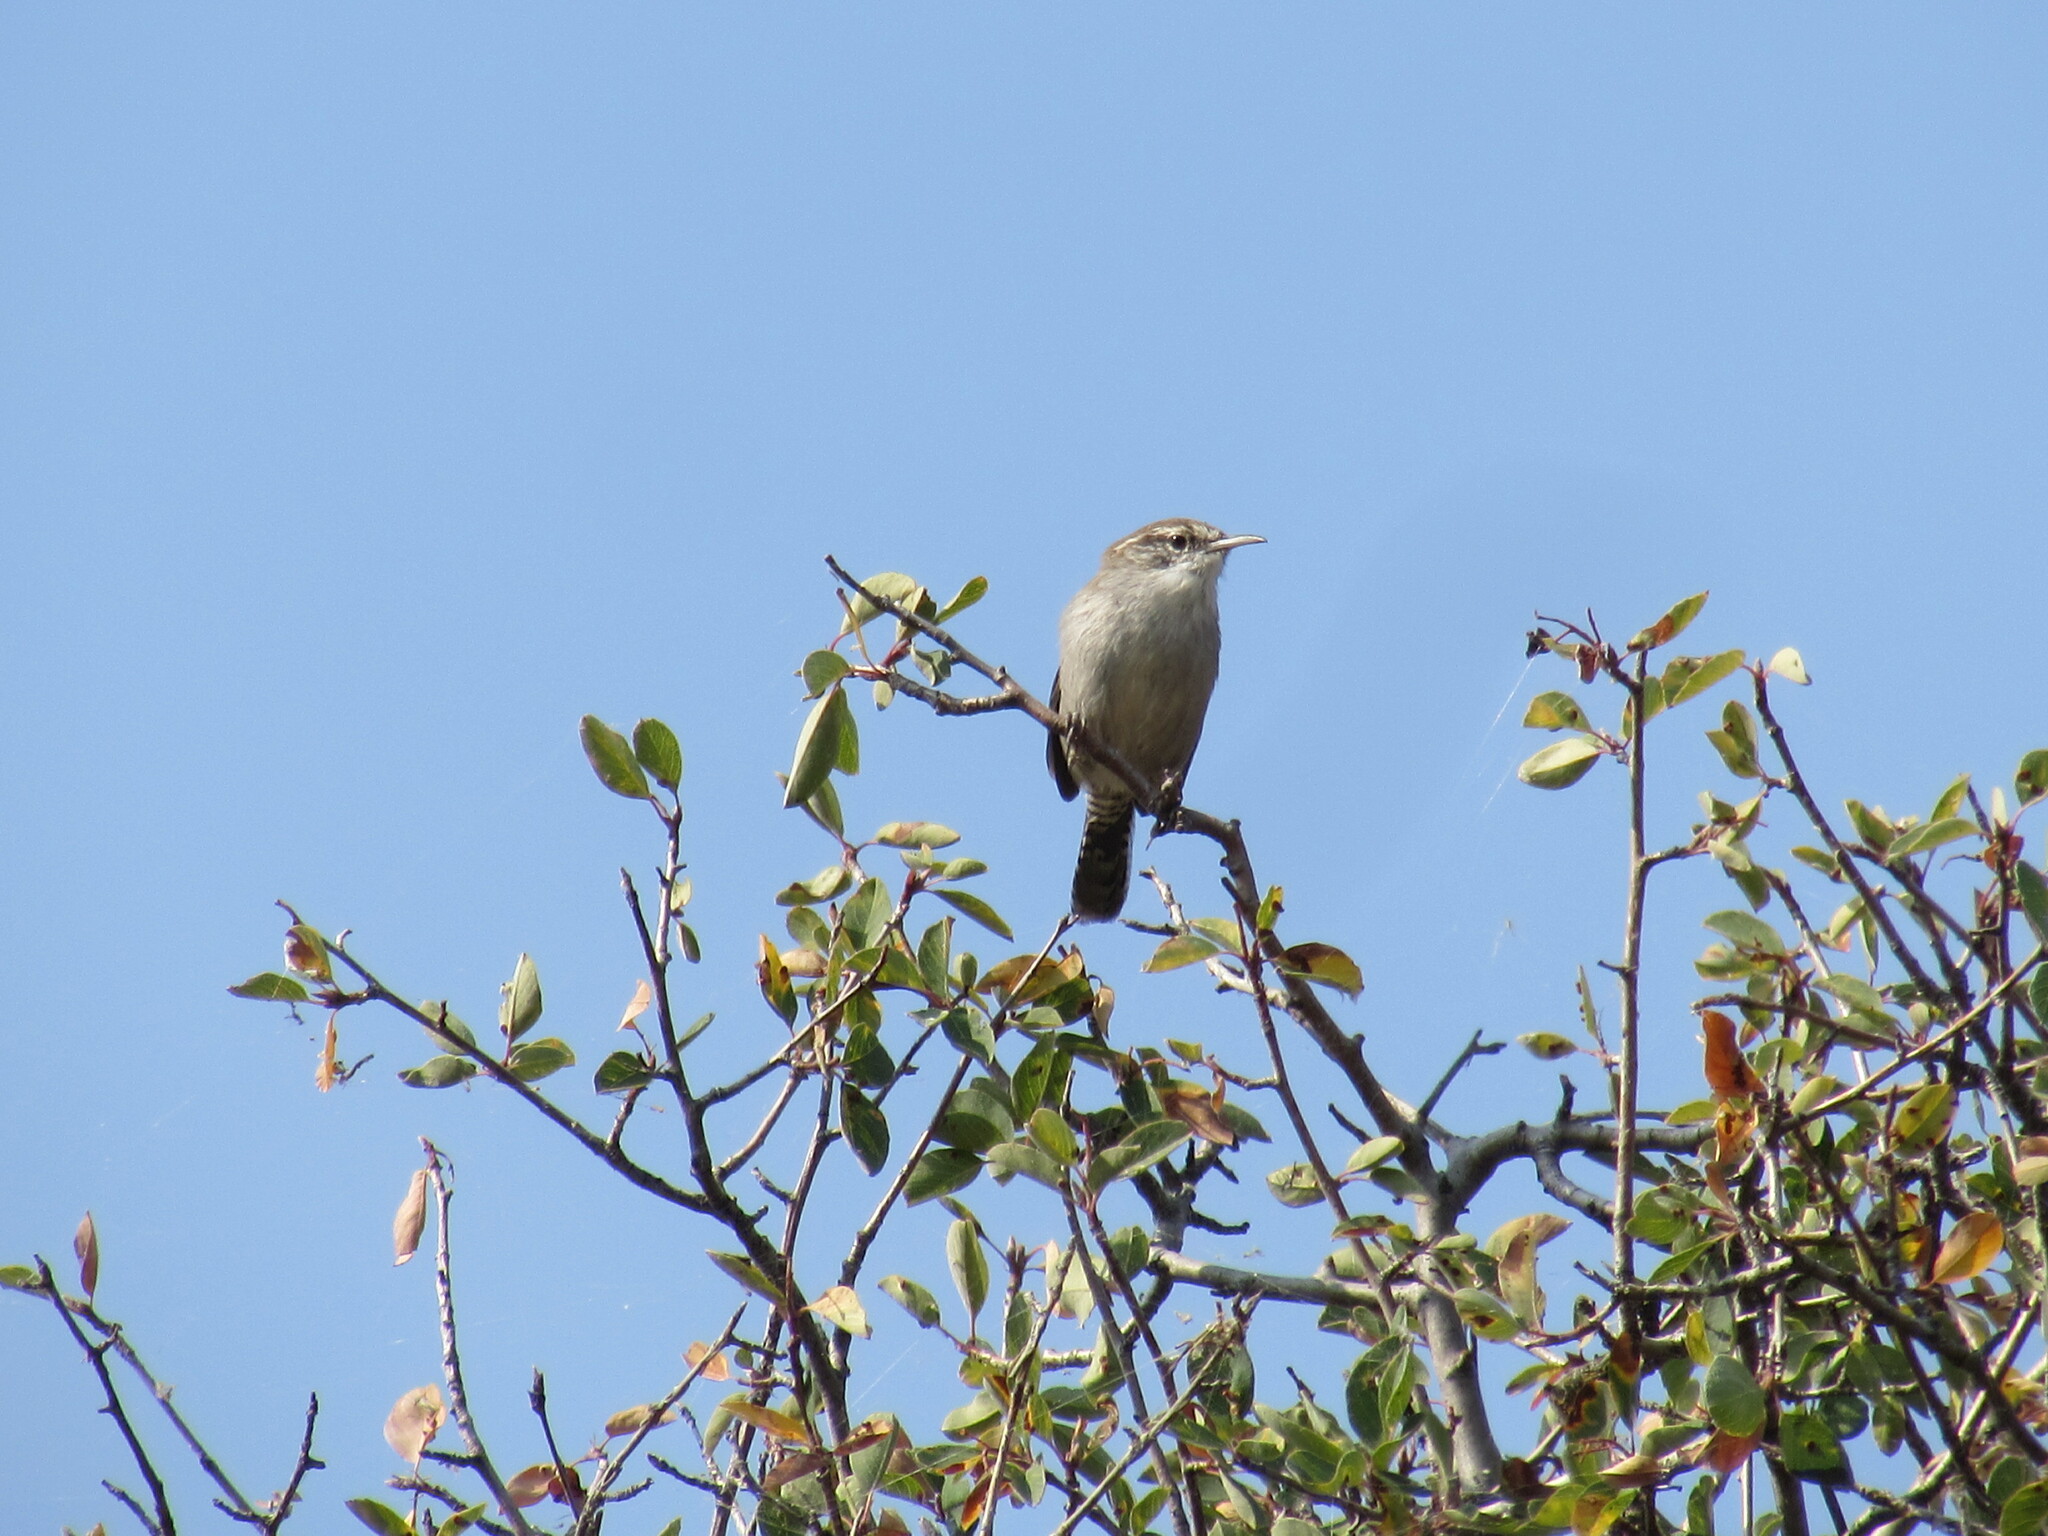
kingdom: Animalia
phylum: Chordata
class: Aves
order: Passeriformes
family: Troglodytidae
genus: Thryomanes
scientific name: Thryomanes bewickii
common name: Bewick's wren
